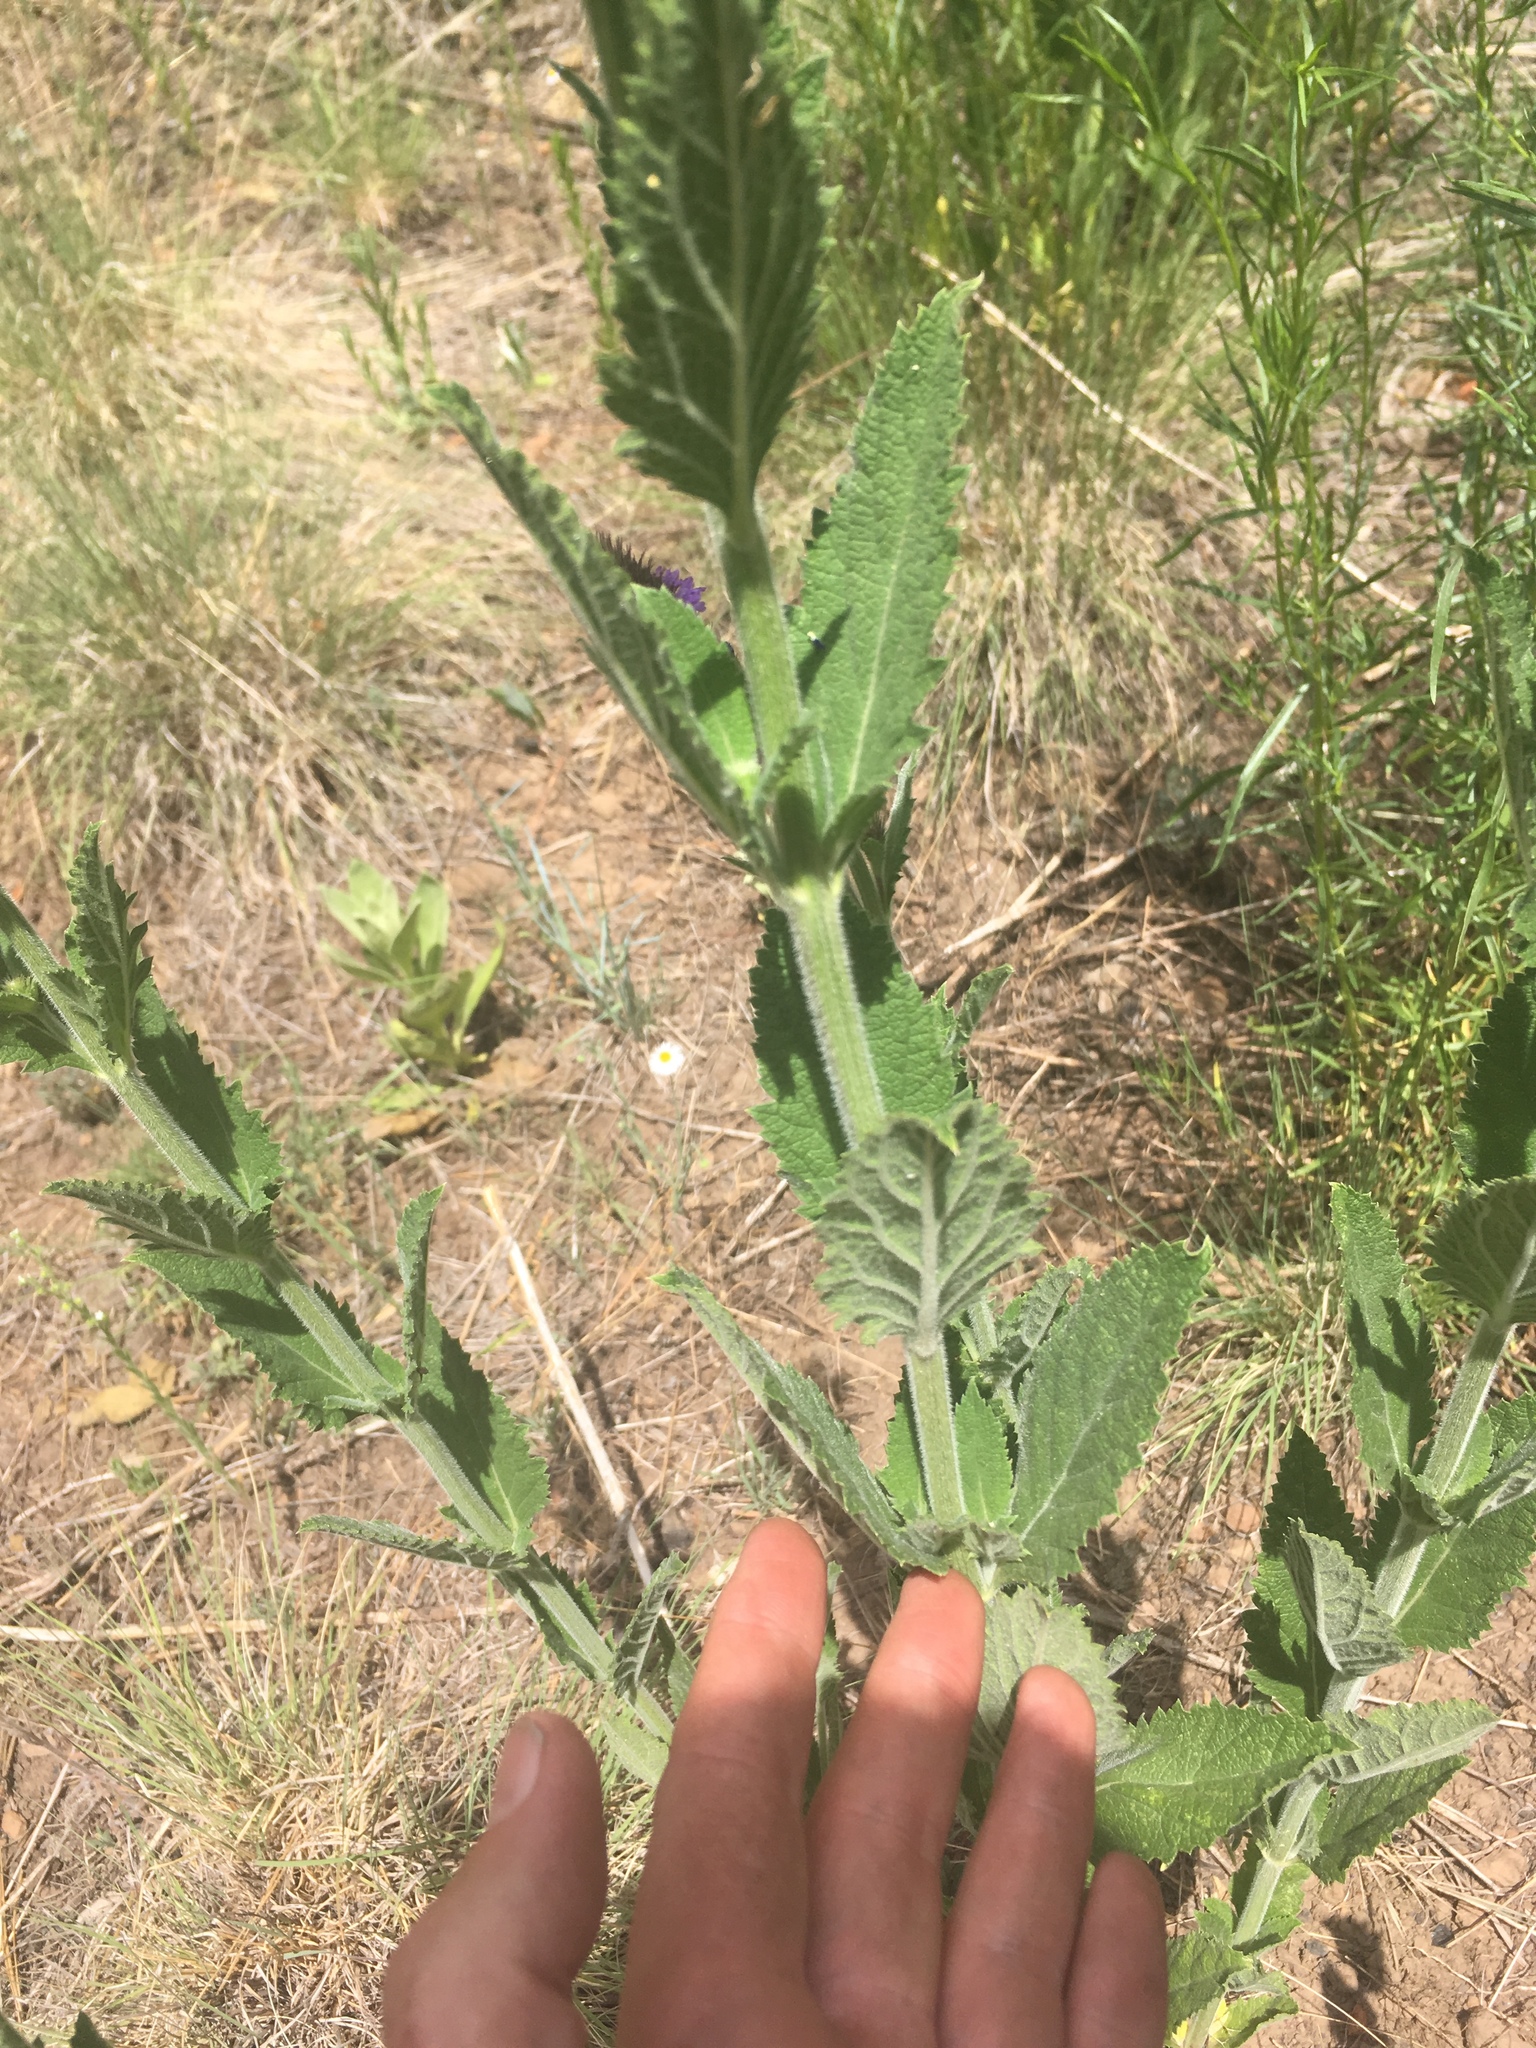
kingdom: Plantae
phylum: Tracheophyta
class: Magnoliopsida
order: Lamiales
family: Verbenaceae
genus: Verbena
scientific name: Verbena macdougalii
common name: New mexico vervain
